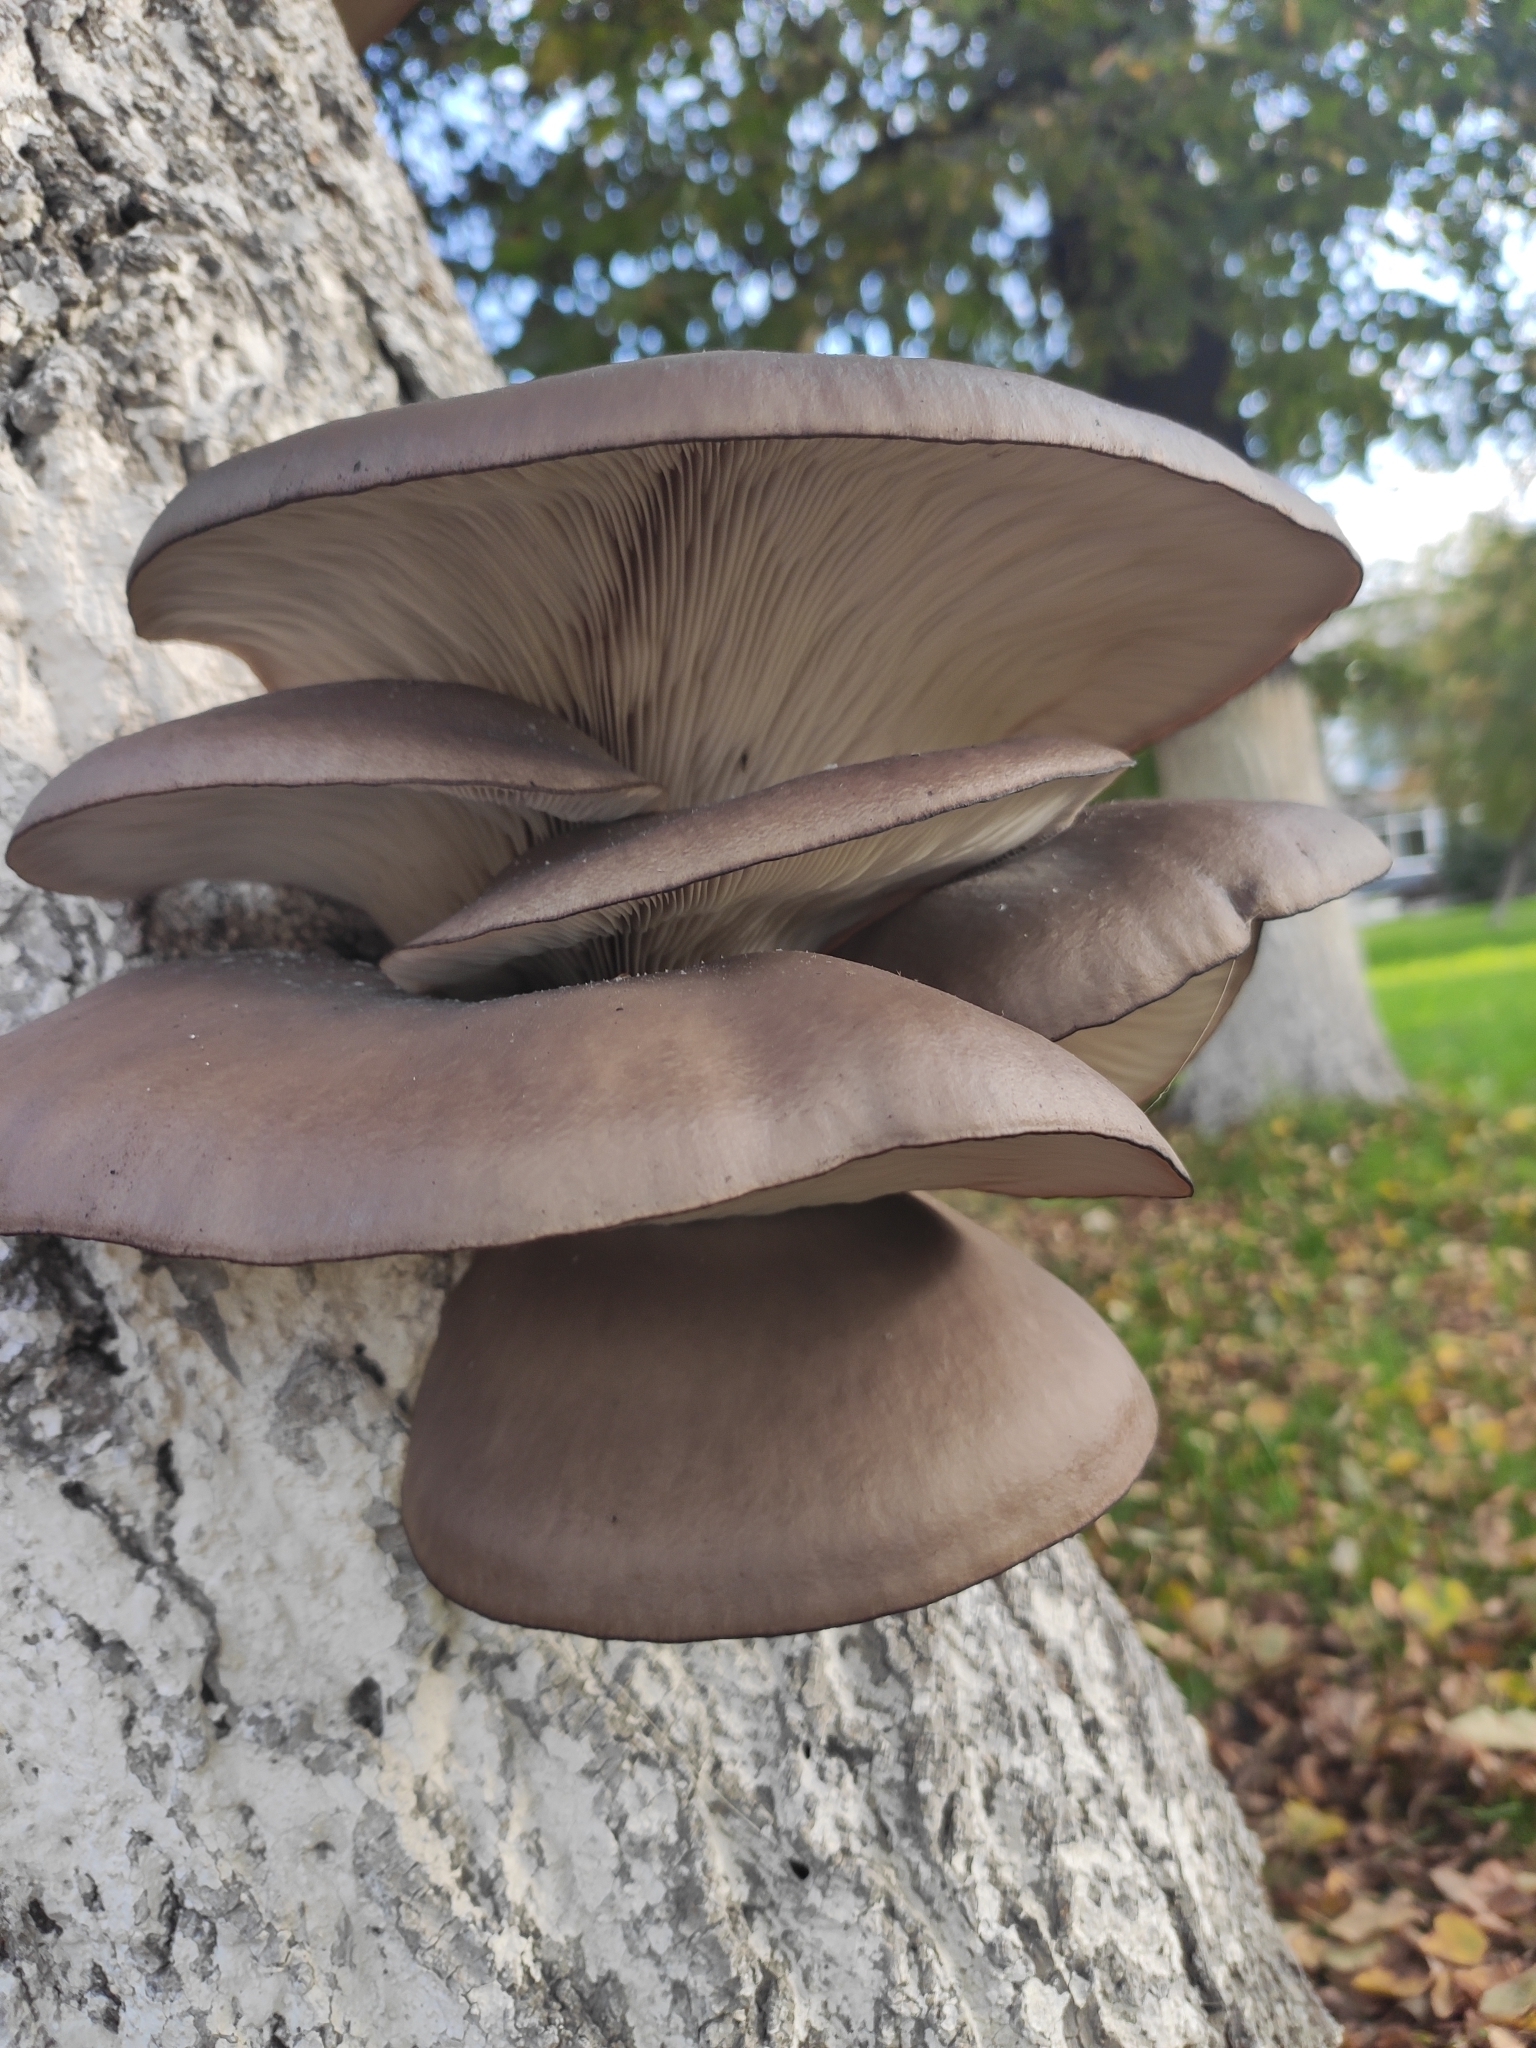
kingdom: Fungi
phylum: Basidiomycota
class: Agaricomycetes
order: Agaricales
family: Pleurotaceae
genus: Pleurotus
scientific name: Pleurotus ostreatus
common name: Oyster mushroom
